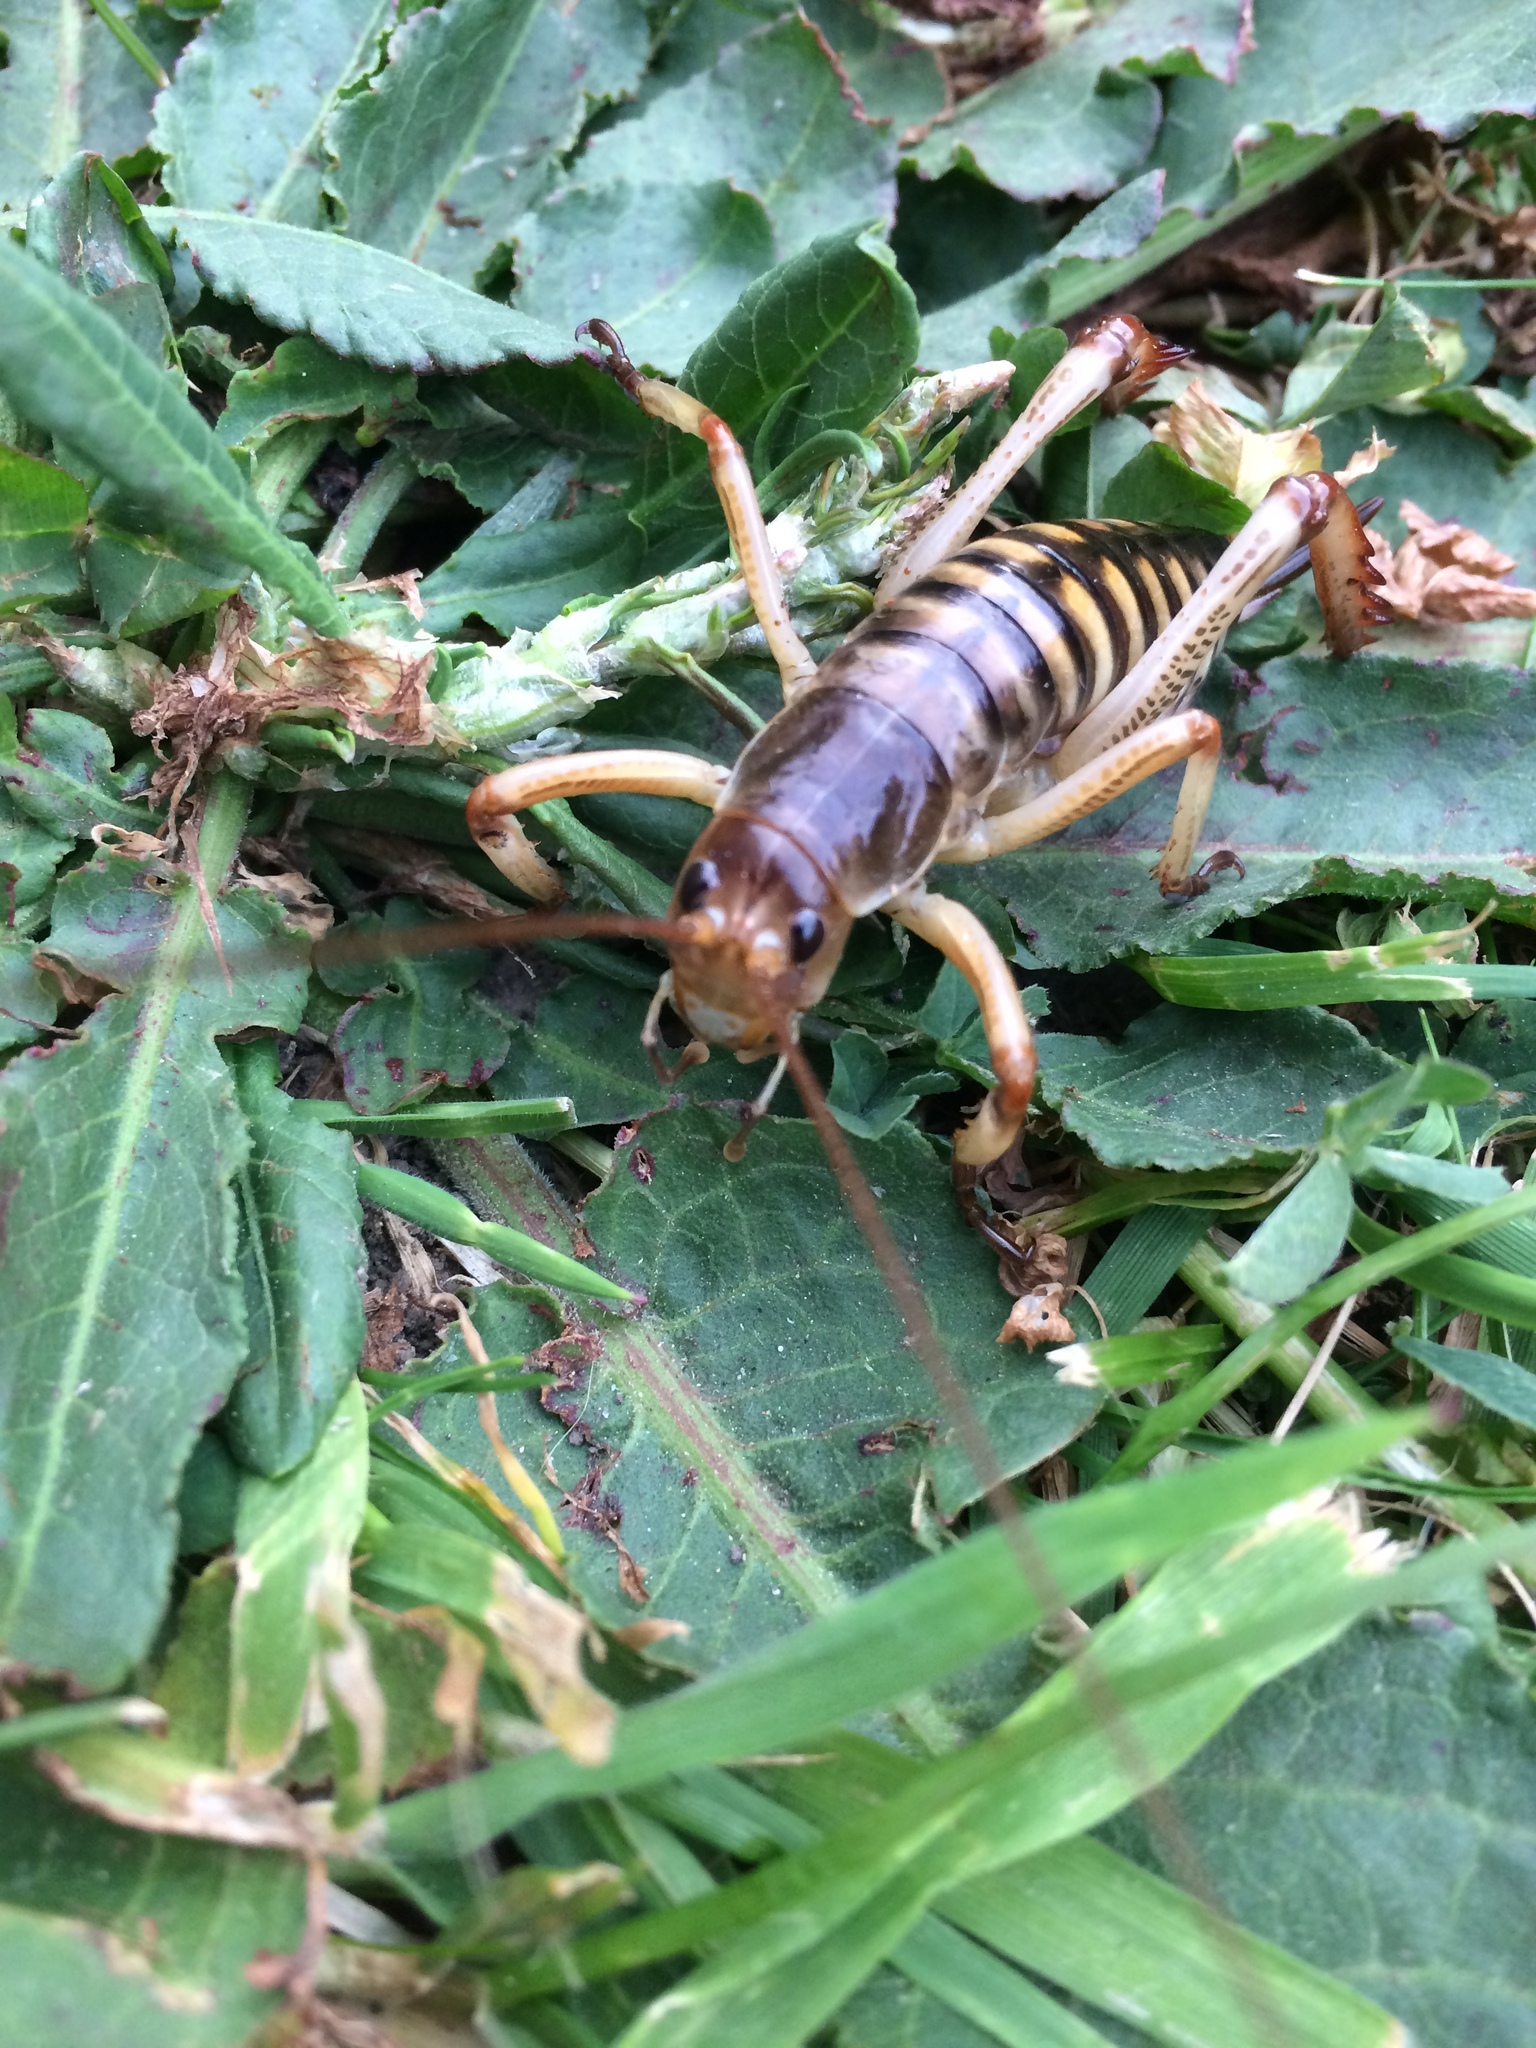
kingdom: Animalia
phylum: Arthropoda
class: Insecta
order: Orthoptera
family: Anostostomatidae
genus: Hemideina
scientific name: Hemideina crassidens
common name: Wellington tree weta
